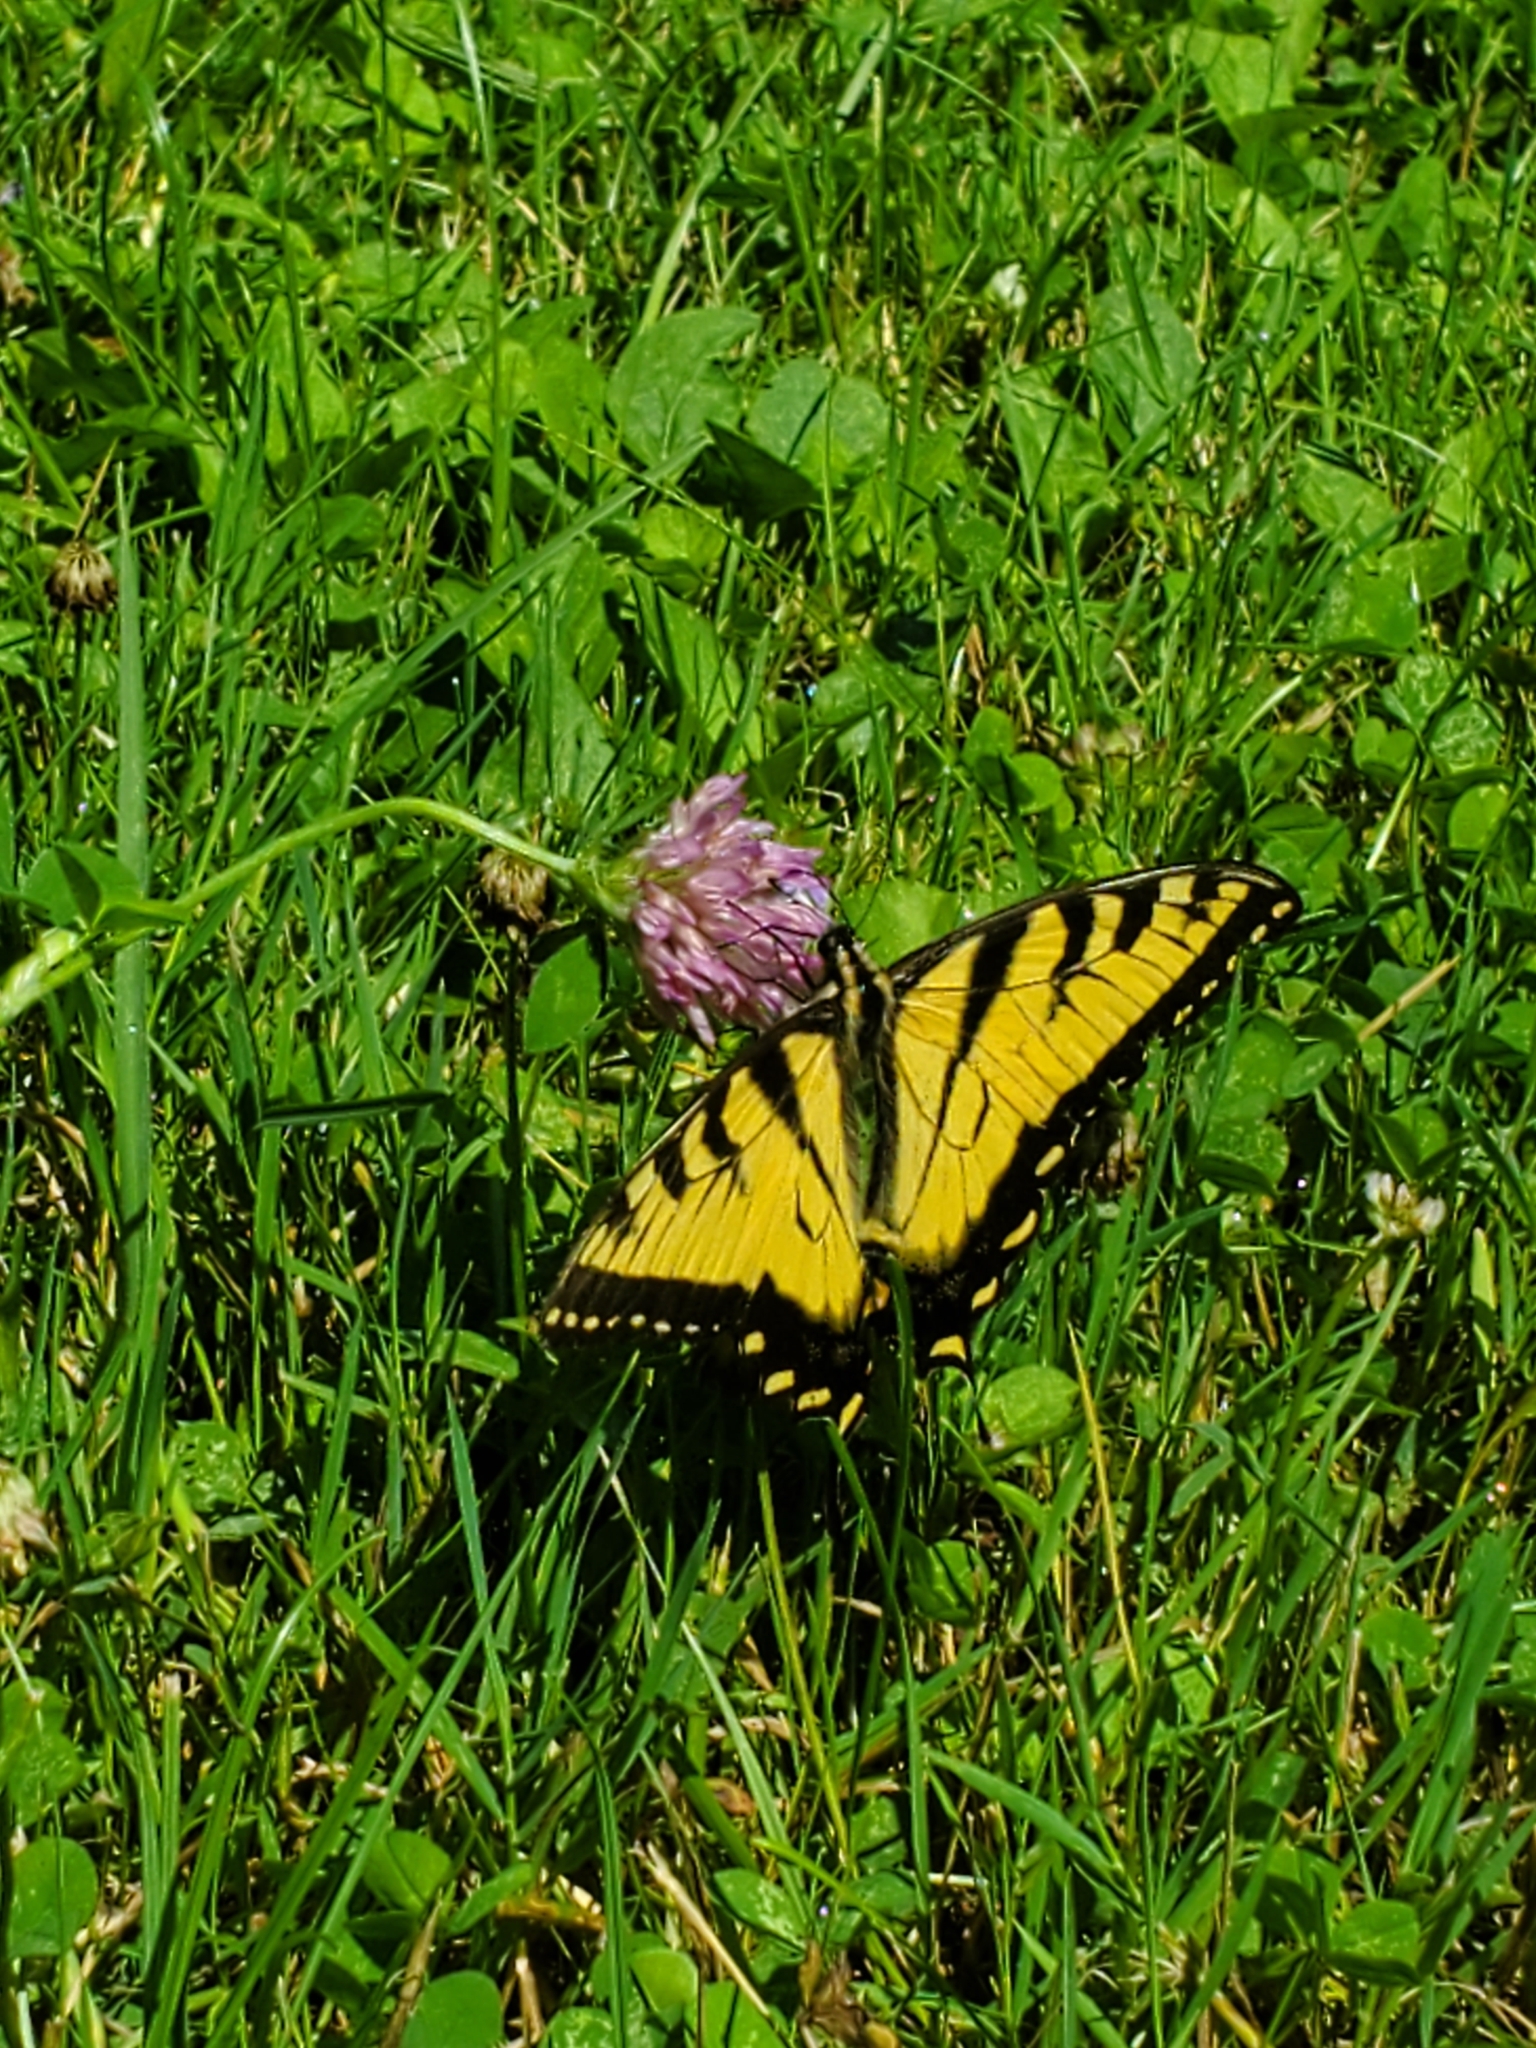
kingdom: Animalia
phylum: Arthropoda
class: Insecta
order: Lepidoptera
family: Papilionidae
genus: Papilio
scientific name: Papilio glaucus
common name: Tiger swallowtail
